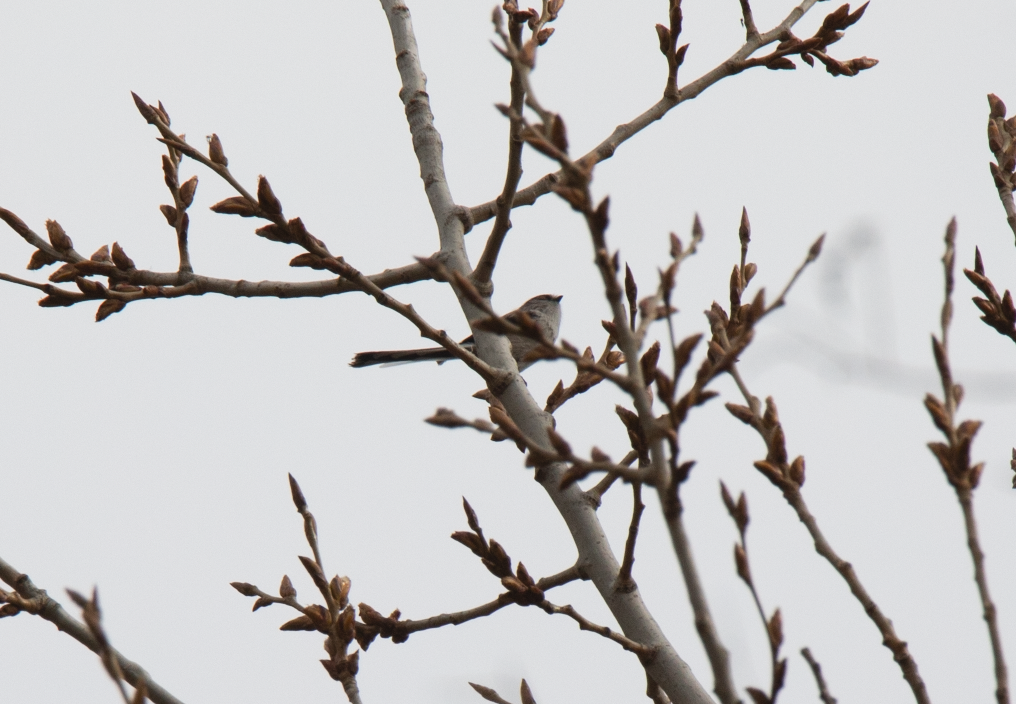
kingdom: Animalia
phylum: Chordata
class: Aves
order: Passeriformes
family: Aegithalidae
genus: Aegithalos
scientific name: Aegithalos caudatus
